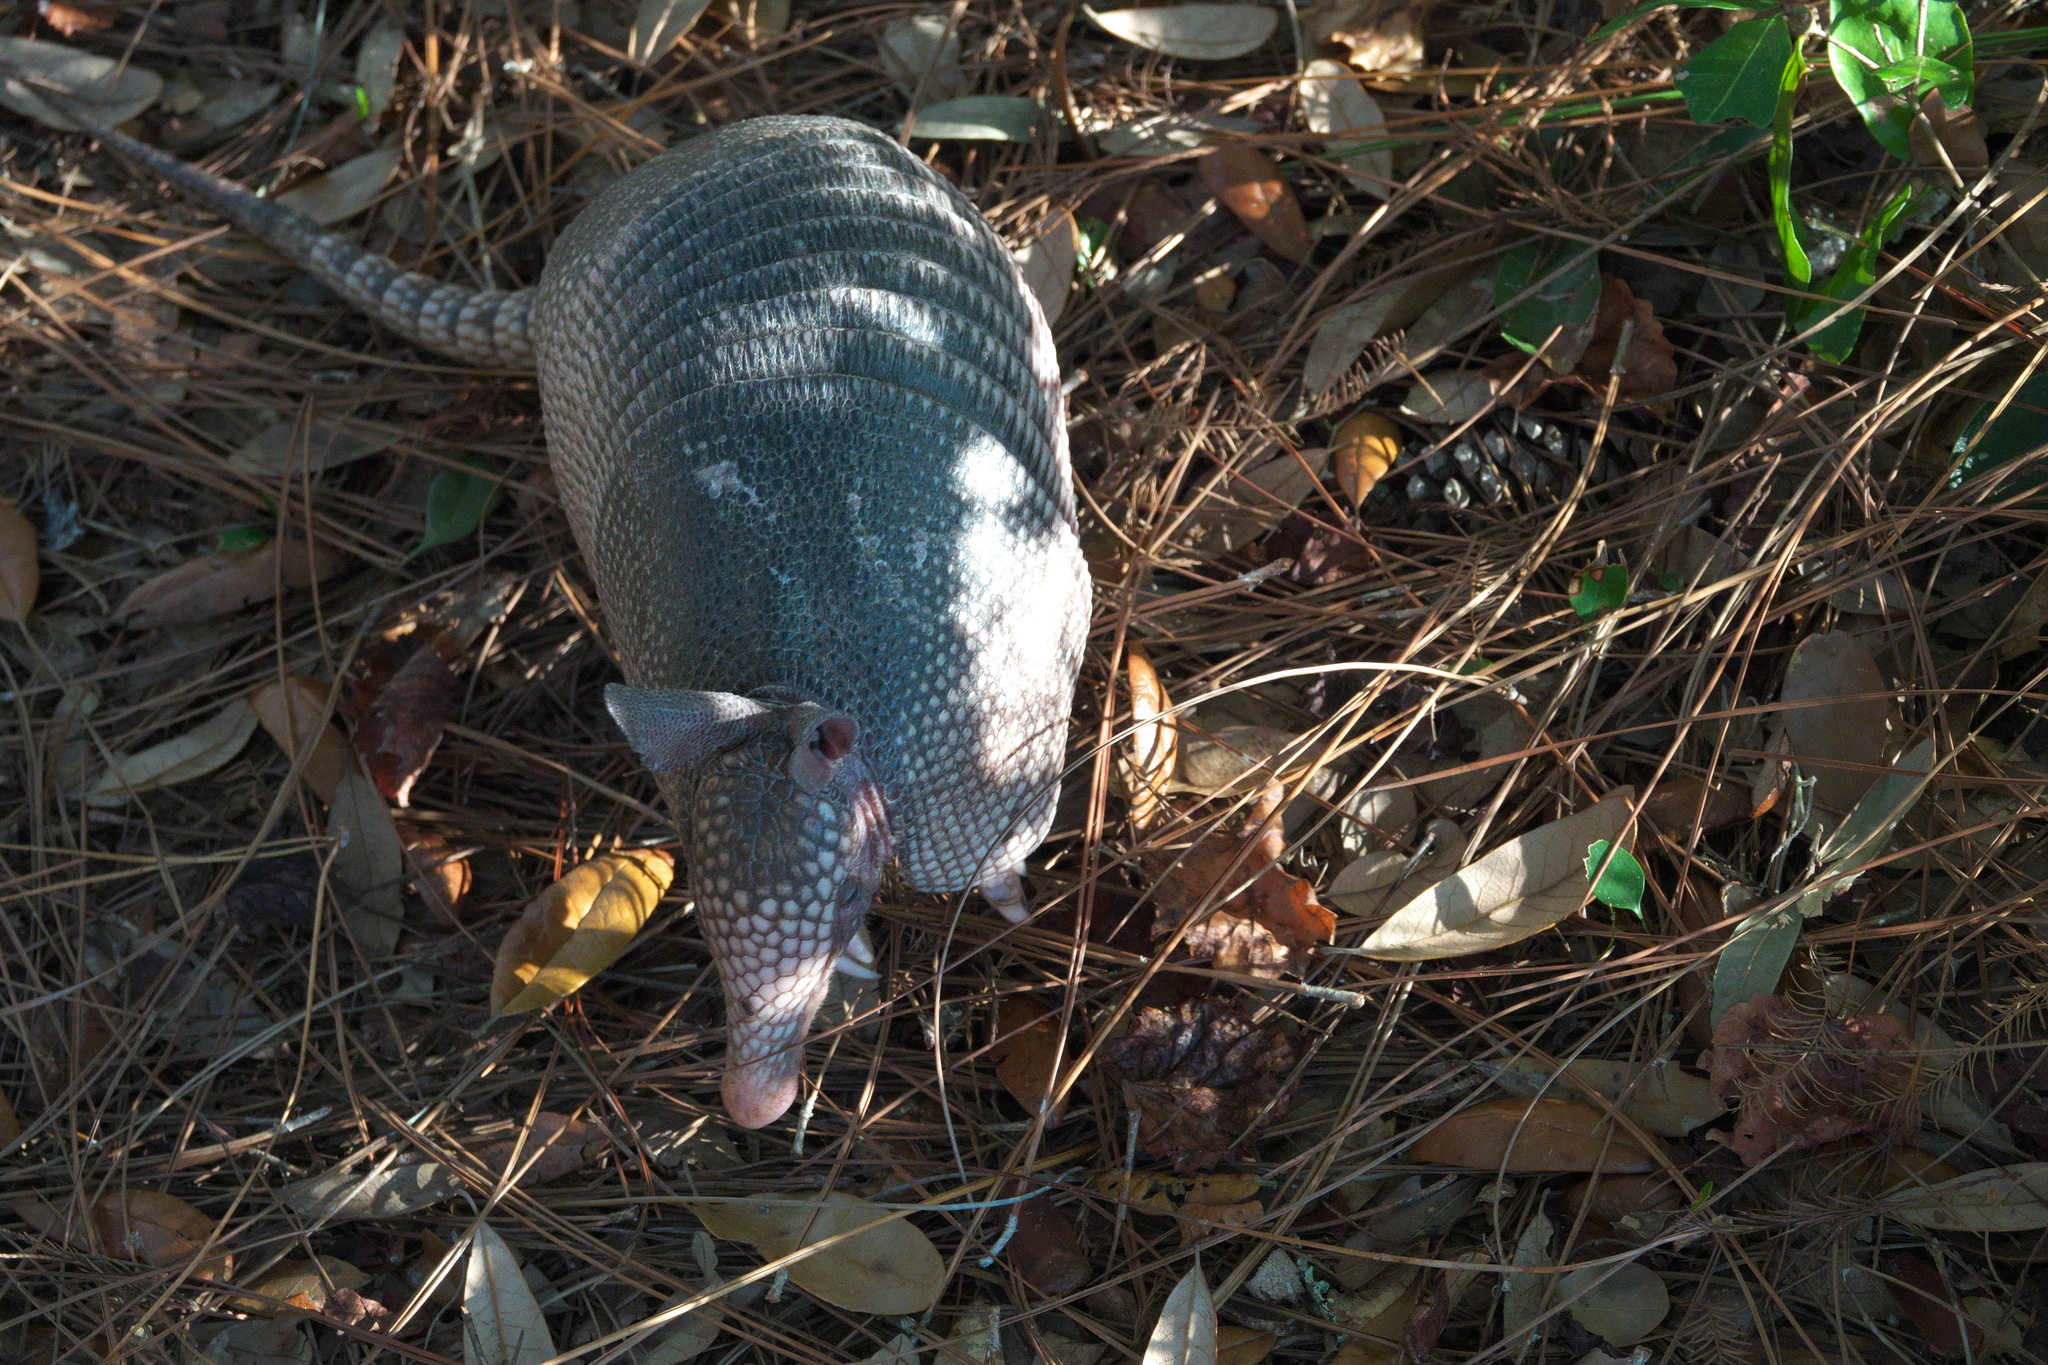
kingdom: Animalia
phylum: Chordata
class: Mammalia
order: Cingulata
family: Dasypodidae
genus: Dasypus
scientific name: Dasypus novemcinctus
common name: Nine-banded armadillo
